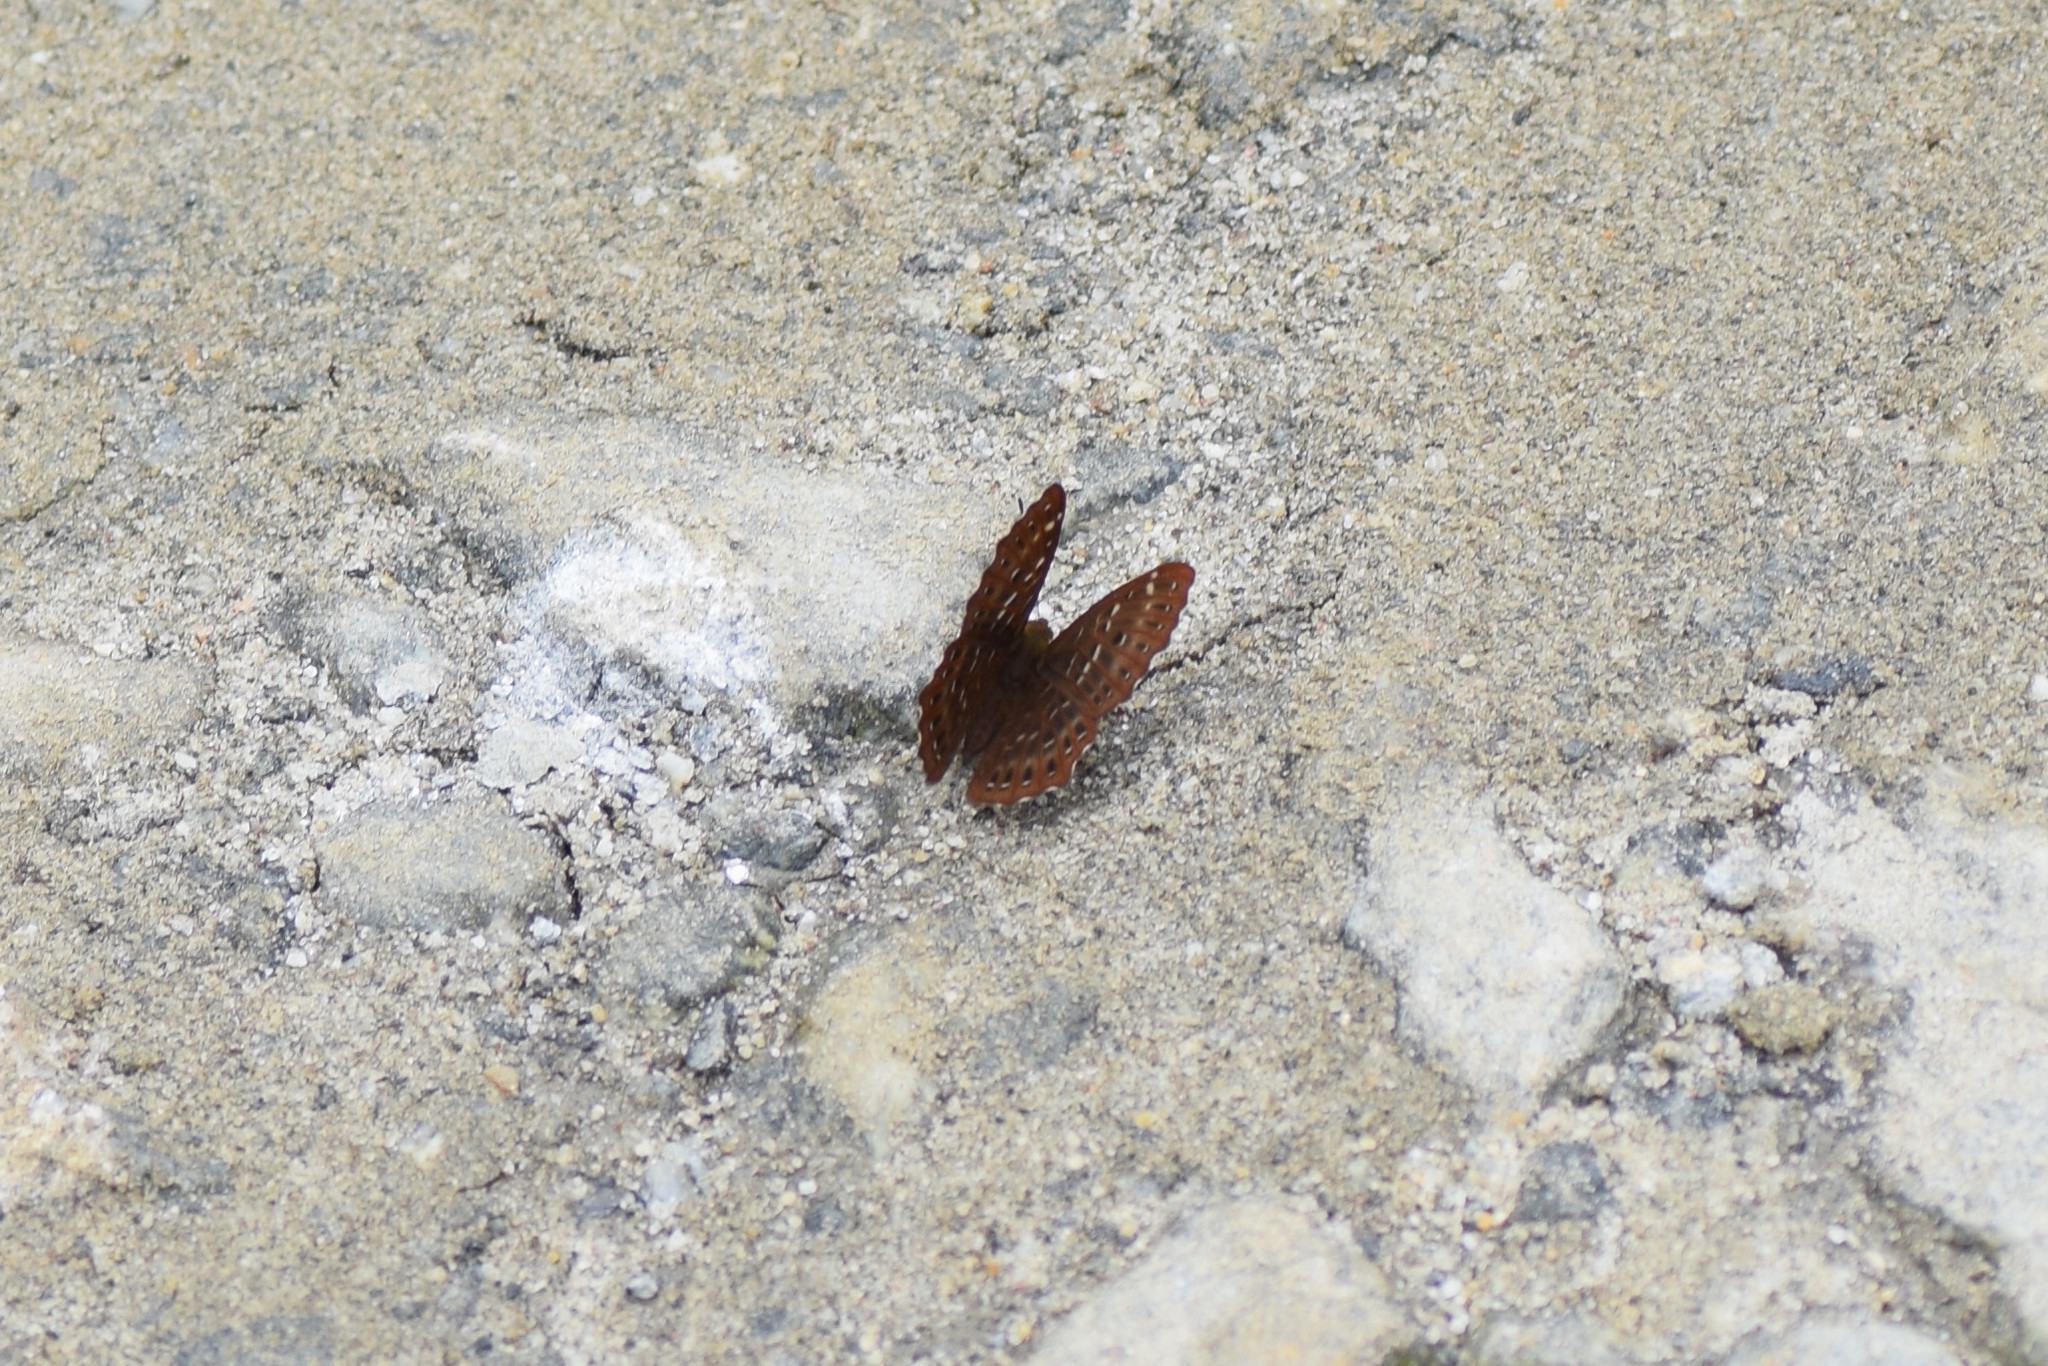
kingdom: Animalia
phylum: Arthropoda
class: Insecta
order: Lepidoptera
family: Riodinidae
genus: Zemeros
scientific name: Zemeros flegyas
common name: Punchinello
